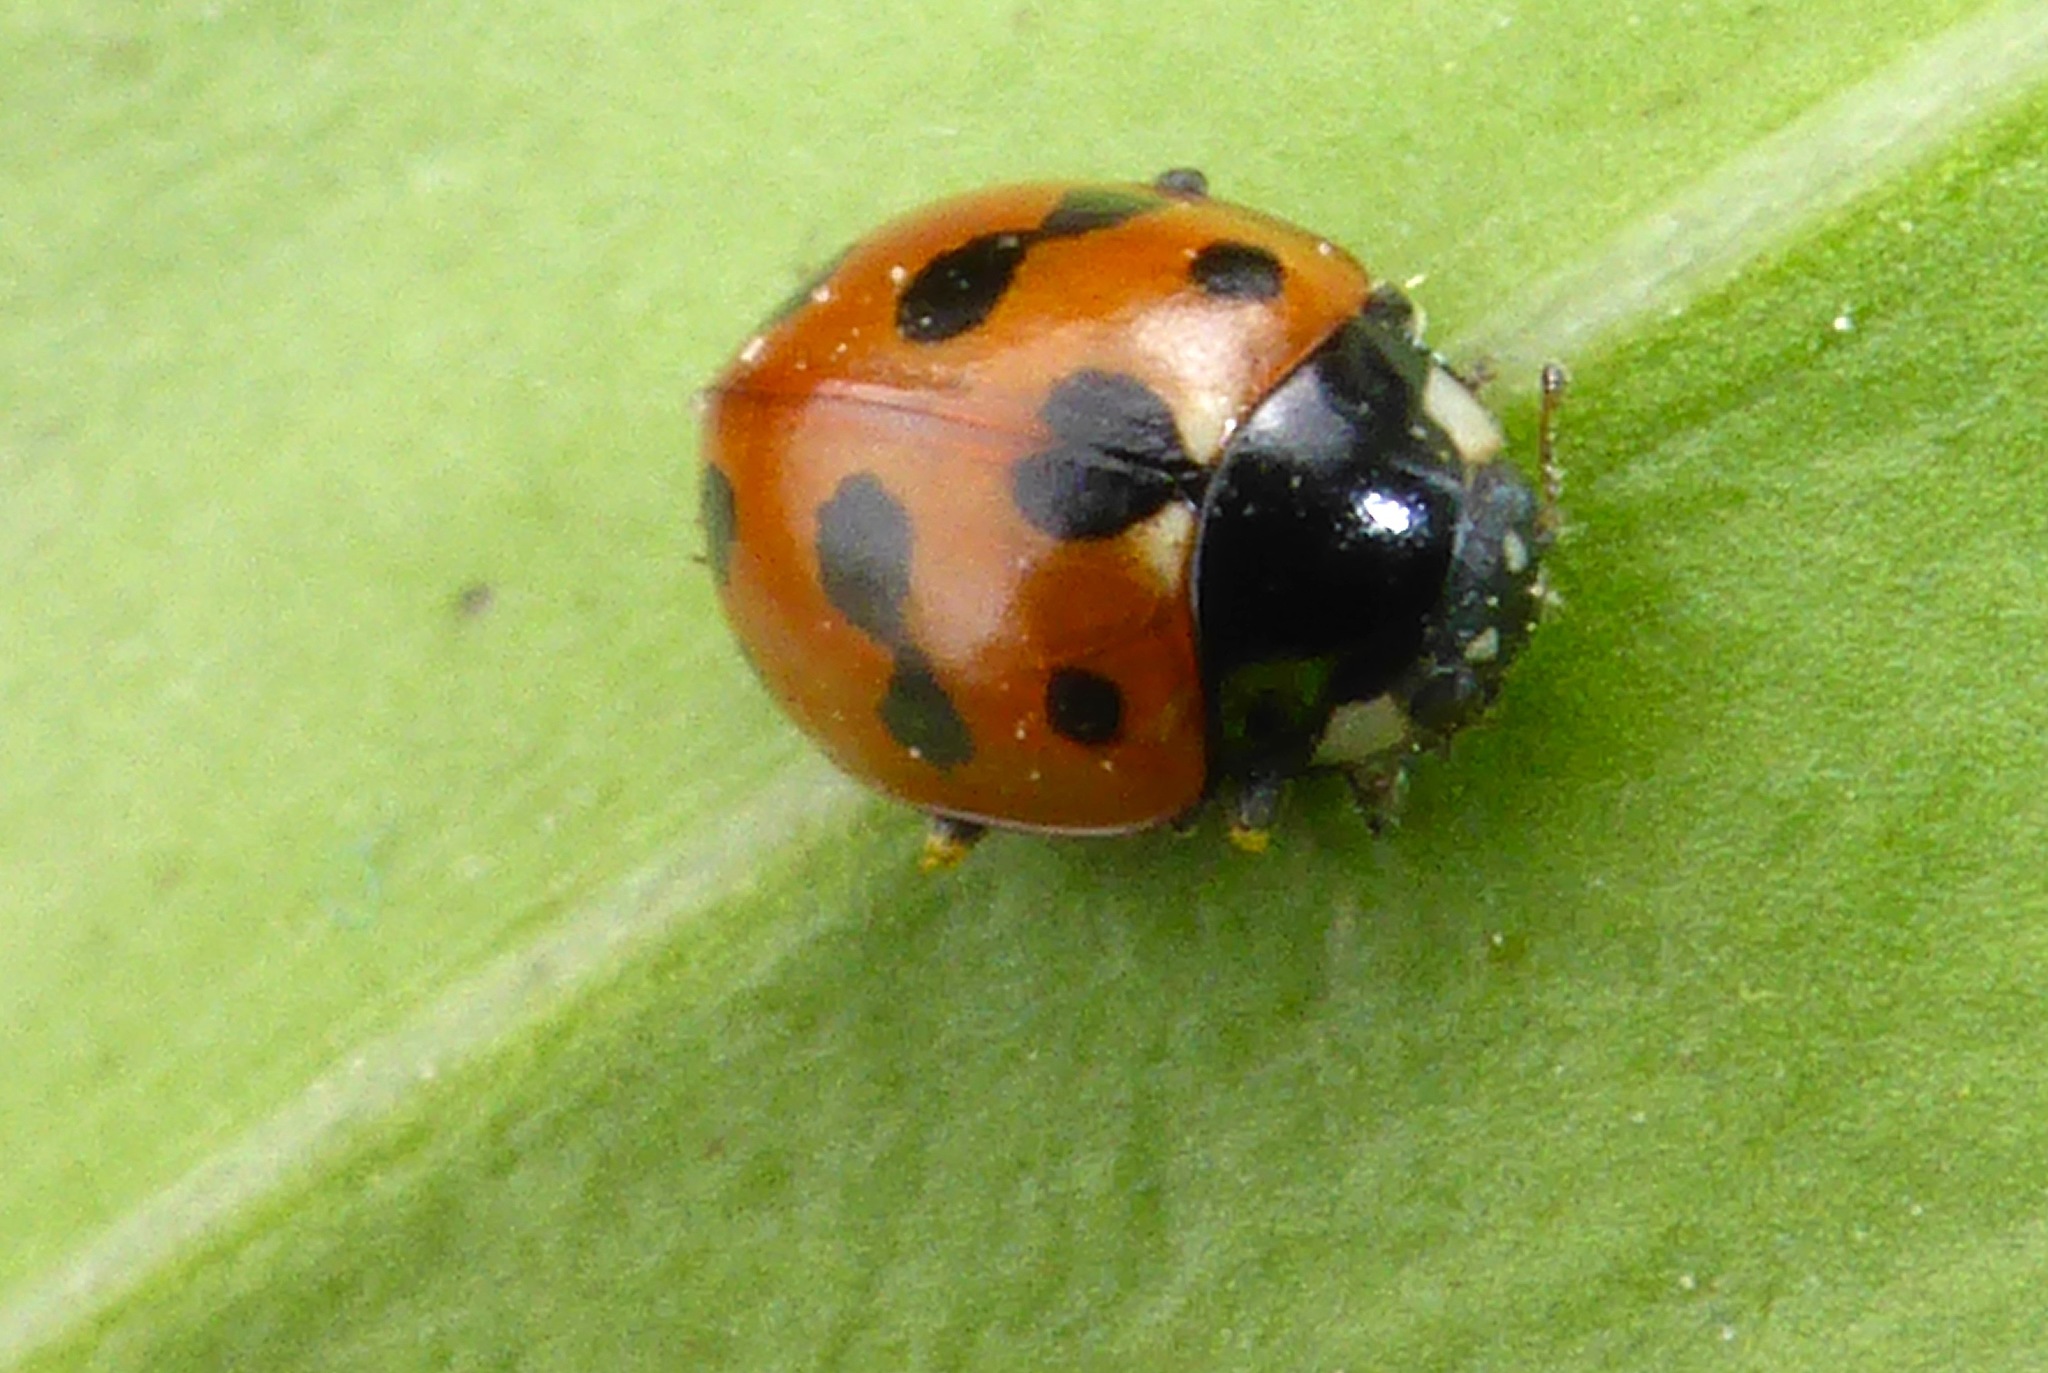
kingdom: Animalia
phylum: Arthropoda
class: Insecta
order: Coleoptera
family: Coccinellidae
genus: Coccinella
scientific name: Coccinella undecimpunctata
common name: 11-spot ladybird
